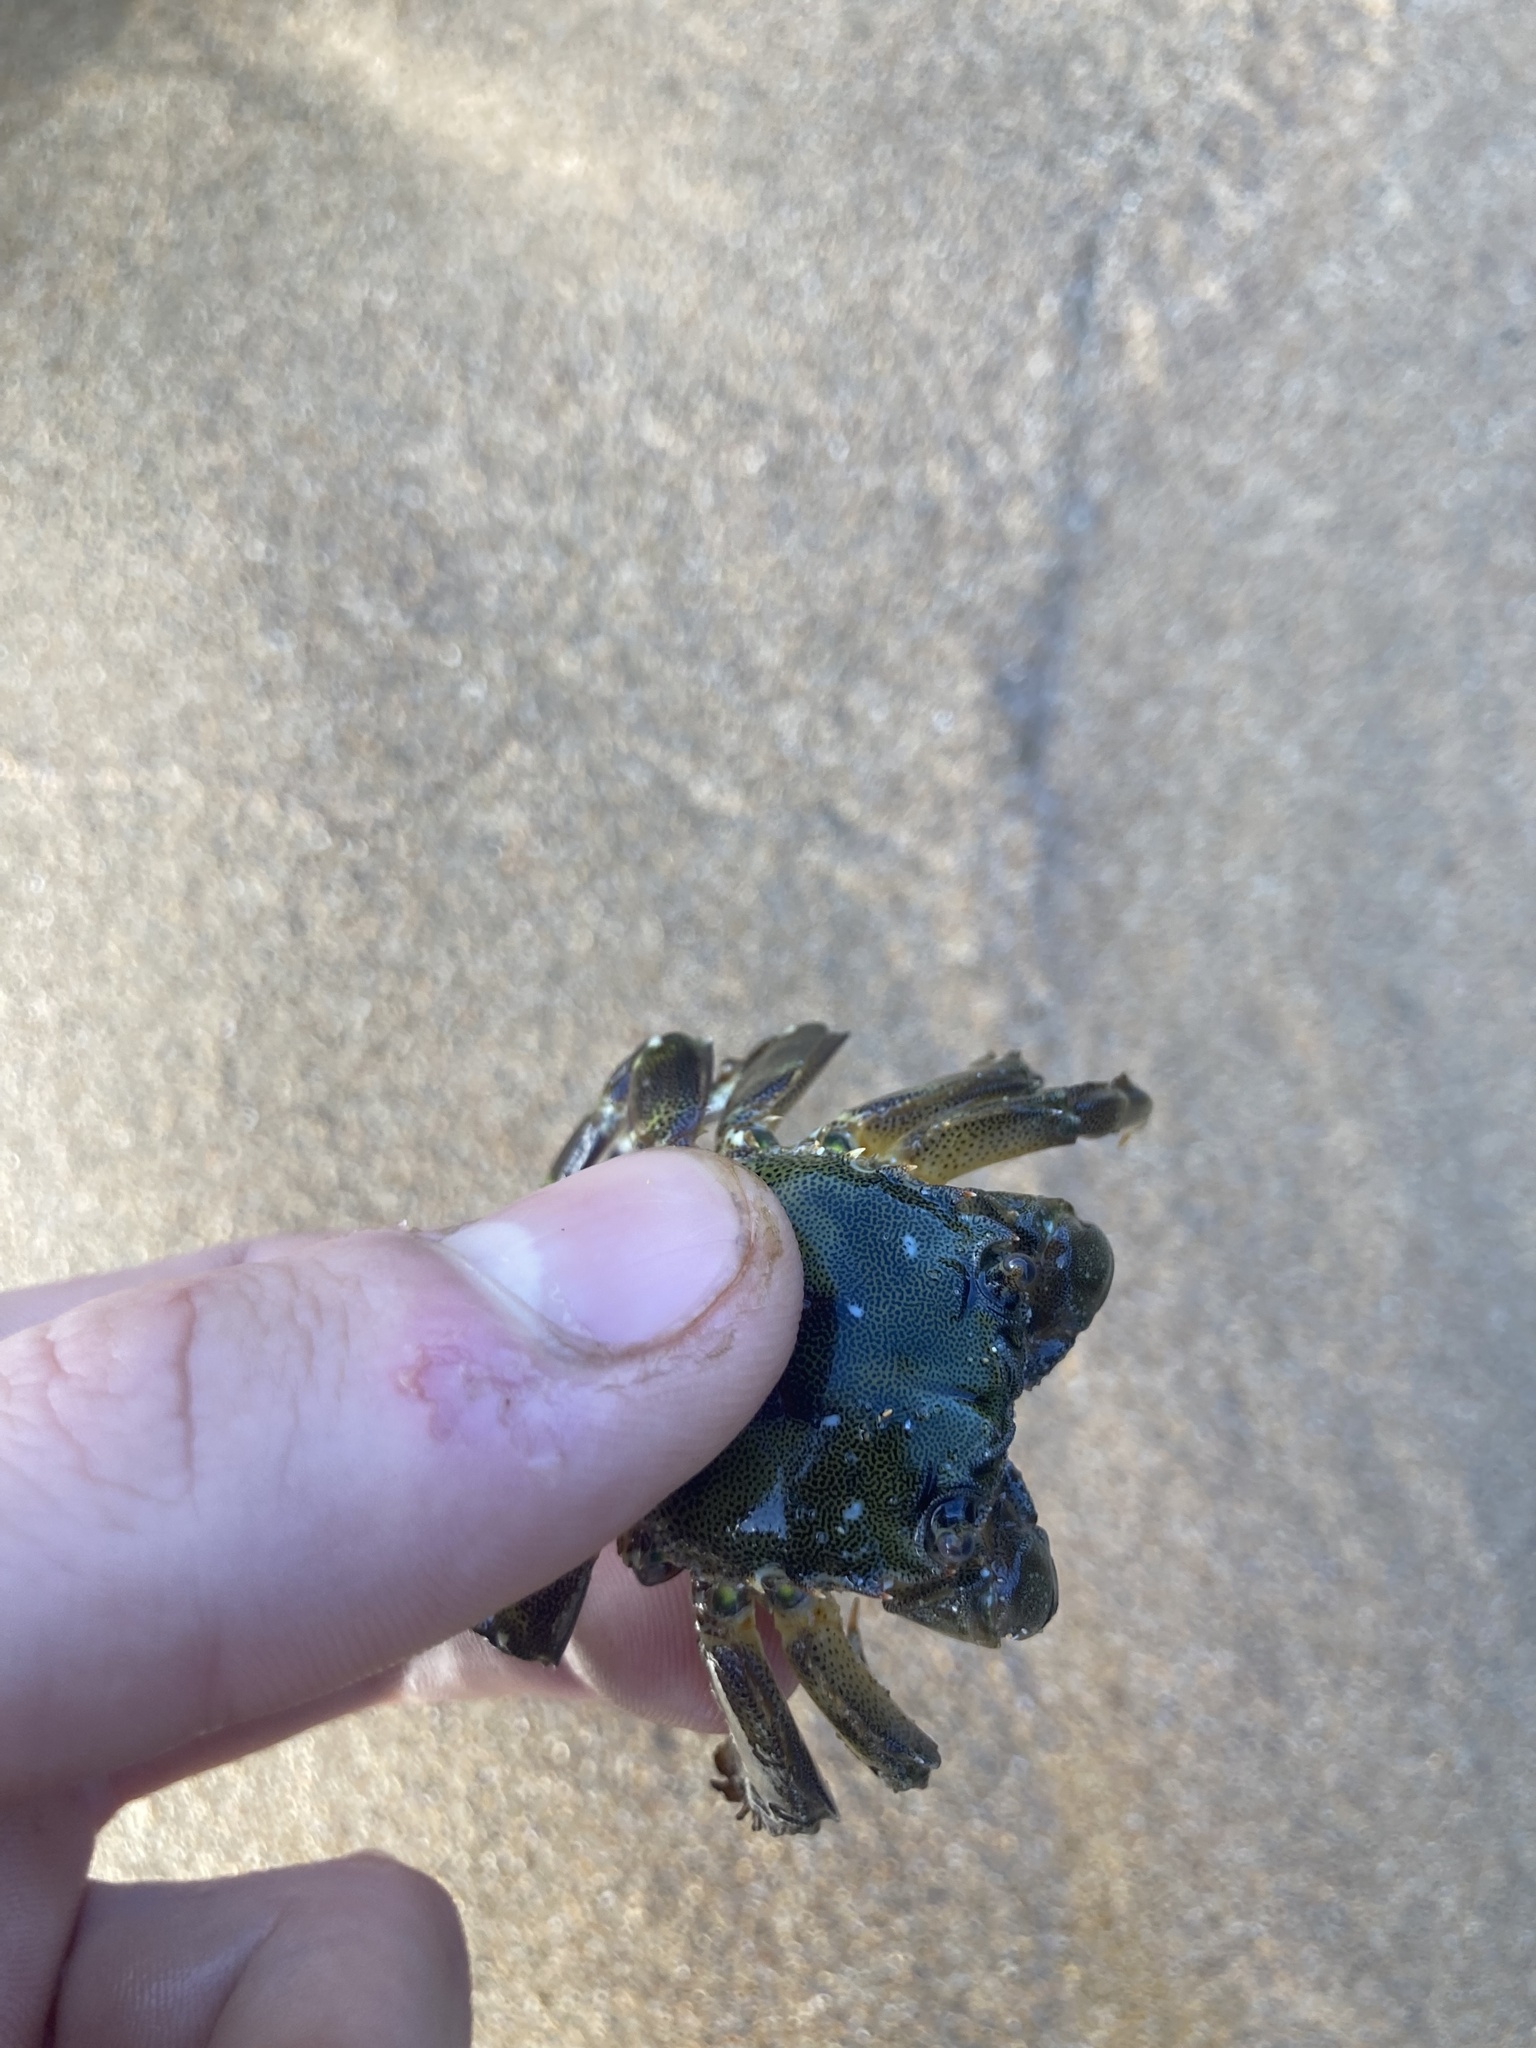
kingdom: Animalia
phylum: Arthropoda
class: Malacostraca
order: Decapoda
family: Plagusiidae
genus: Davusia
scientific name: Davusia glabra
